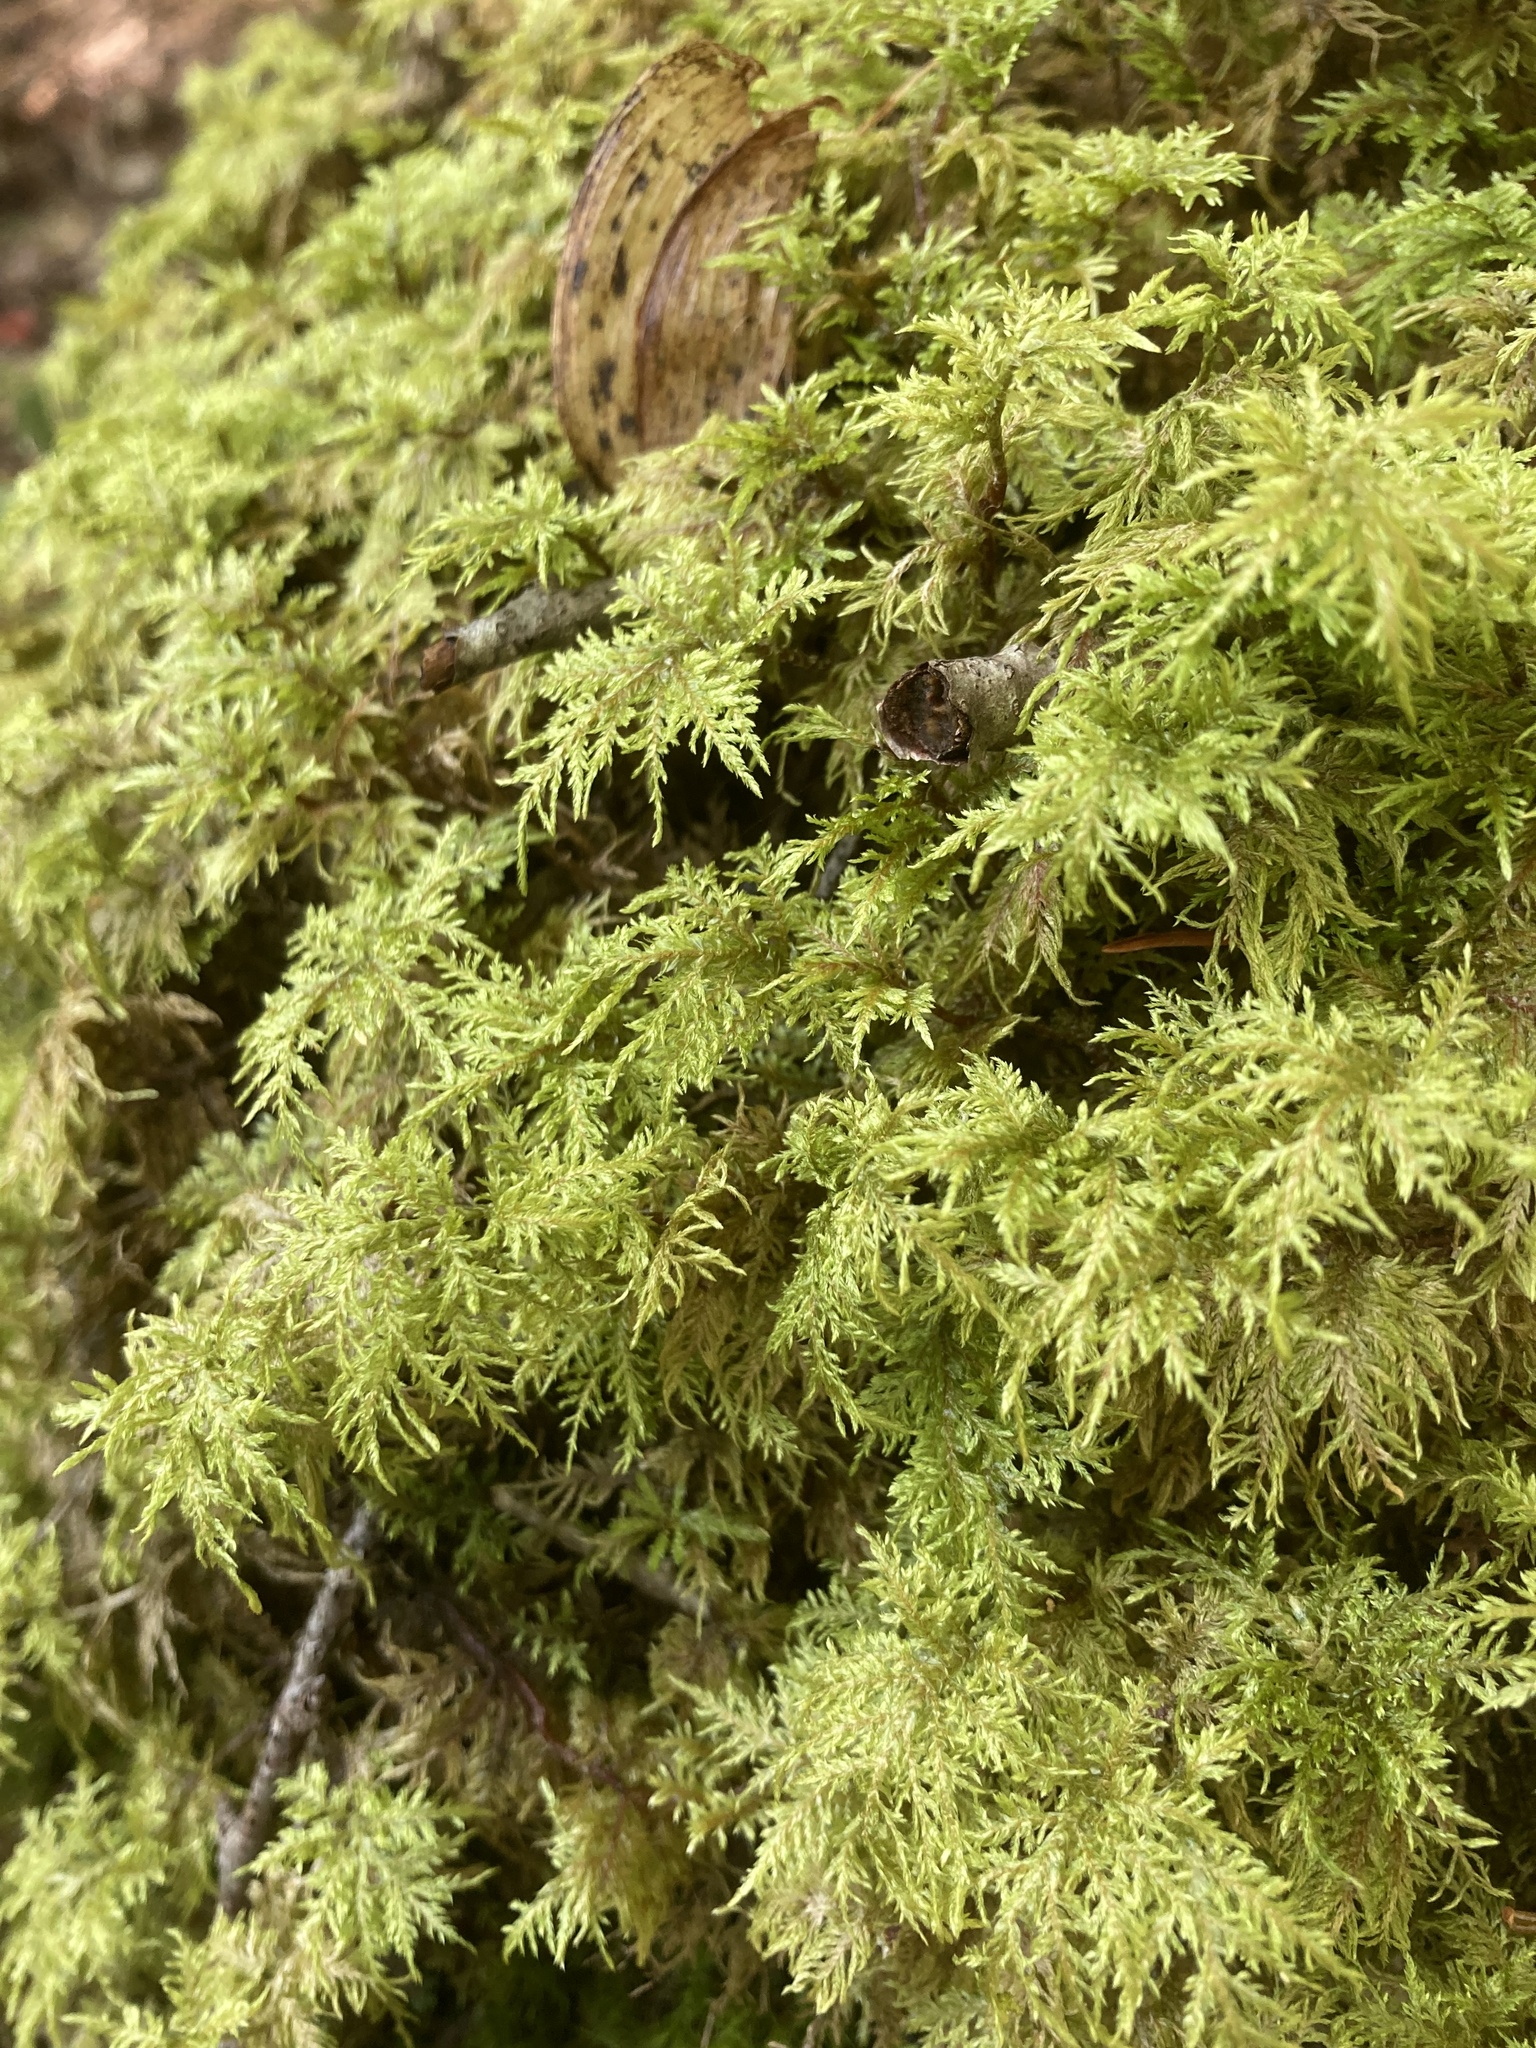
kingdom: Plantae
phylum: Bryophyta
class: Bryopsida
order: Hypnales
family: Hylocomiaceae
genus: Hylocomium
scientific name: Hylocomium splendens
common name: Stairstep moss
